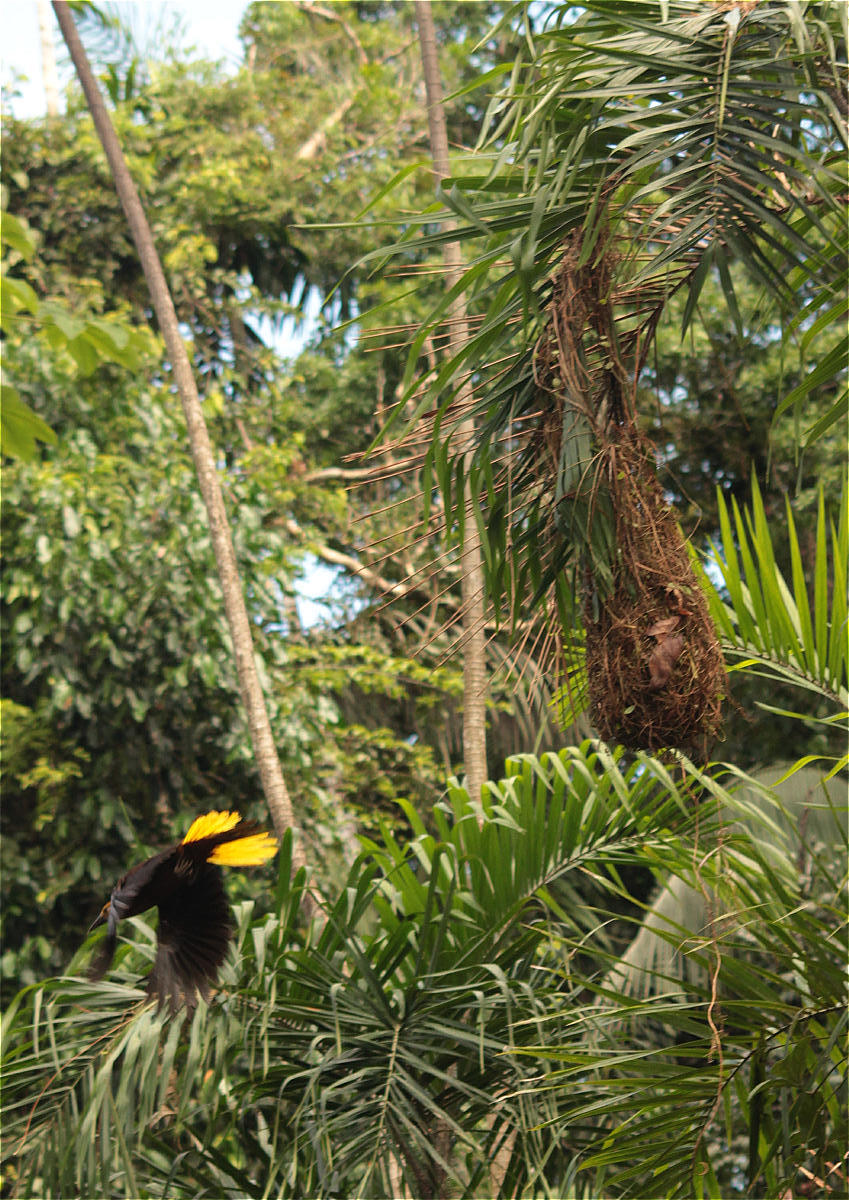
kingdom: Animalia
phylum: Chordata
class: Aves
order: Passeriformes
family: Icteridae
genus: Psarocolius
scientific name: Psarocolius angustifrons
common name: Russet-backed oropendola
